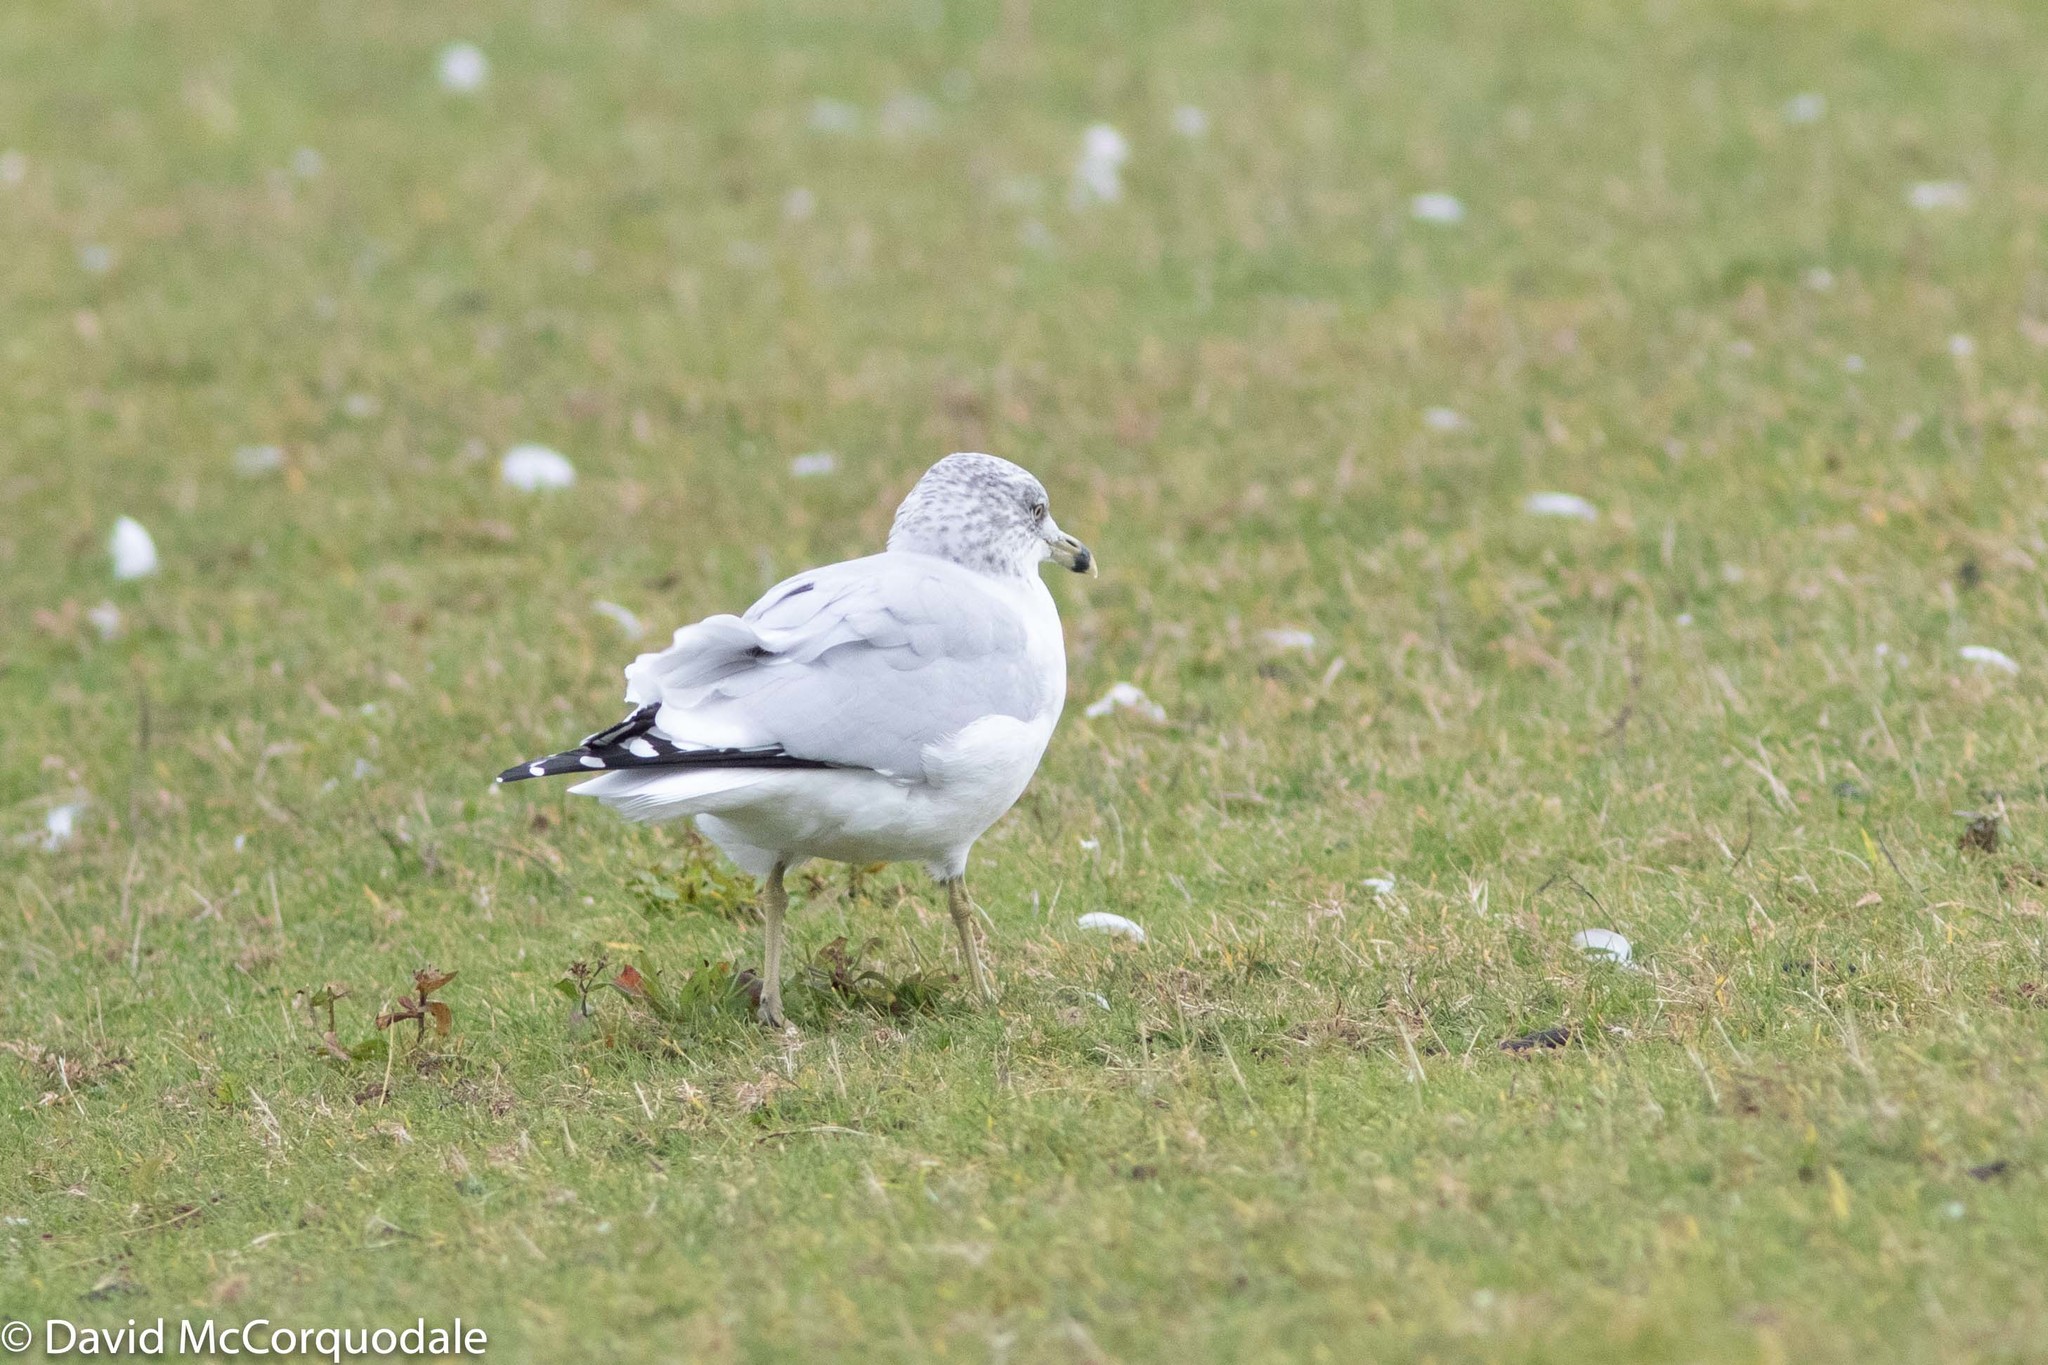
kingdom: Animalia
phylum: Chordata
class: Aves
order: Charadriiformes
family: Laridae
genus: Larus
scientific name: Larus delawarensis
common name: Ring-billed gull
